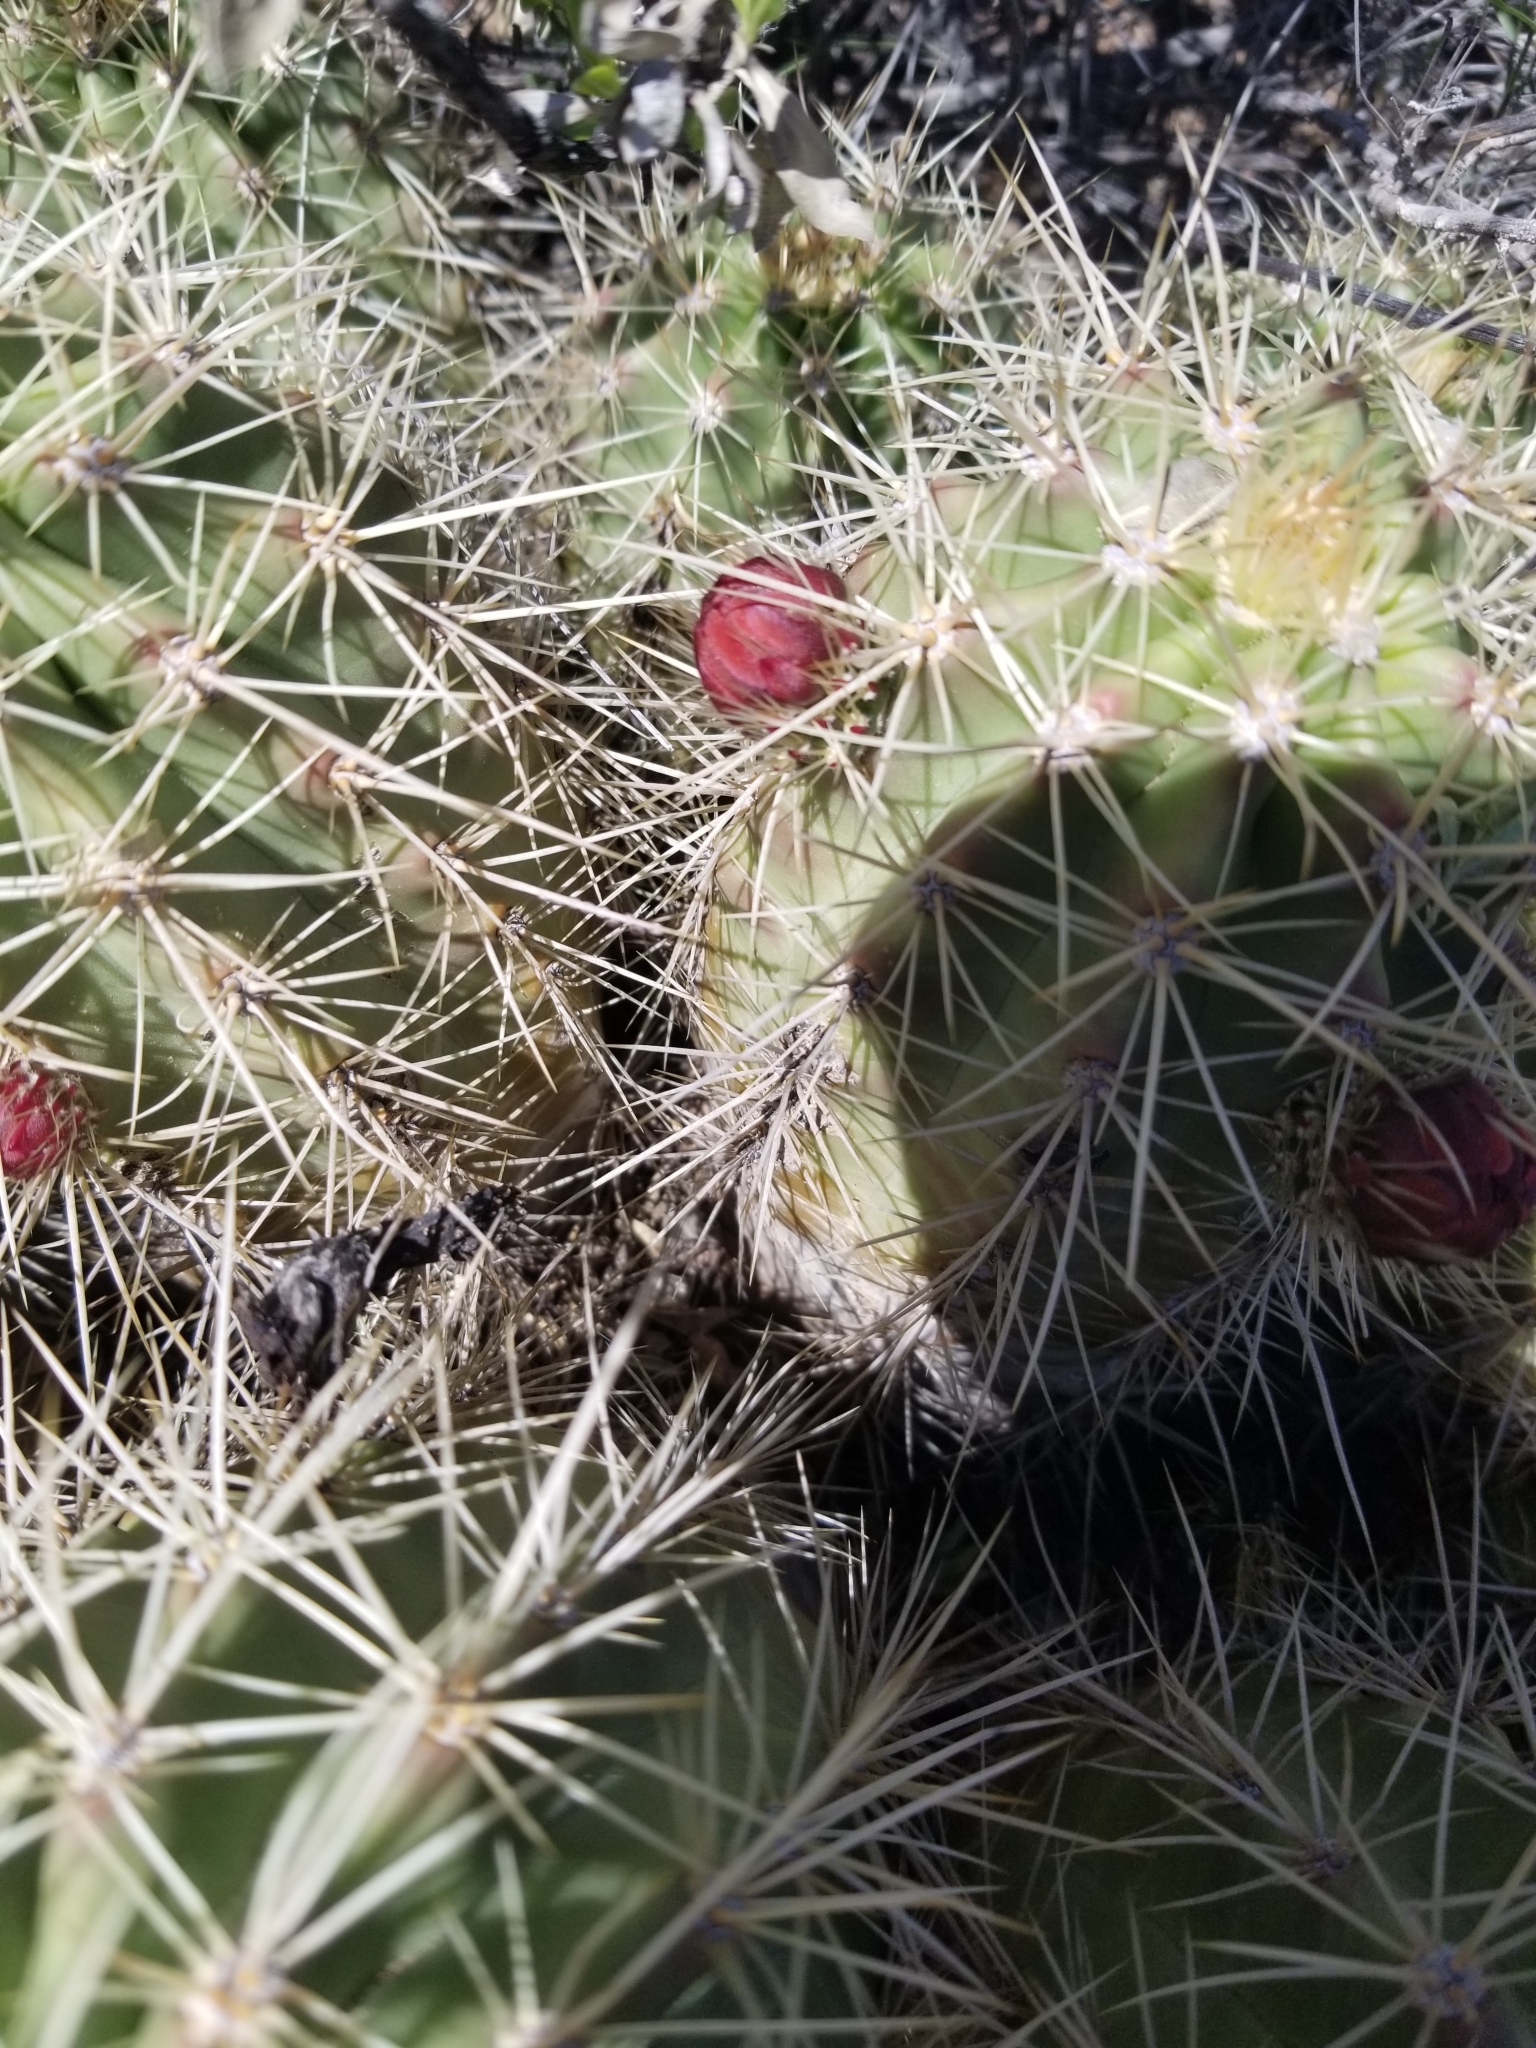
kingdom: Plantae
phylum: Tracheophyta
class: Magnoliopsida
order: Caryophyllales
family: Cactaceae
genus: Echinocereus
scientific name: Echinocereus coccineus
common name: Scarlet hedgehog cactus
